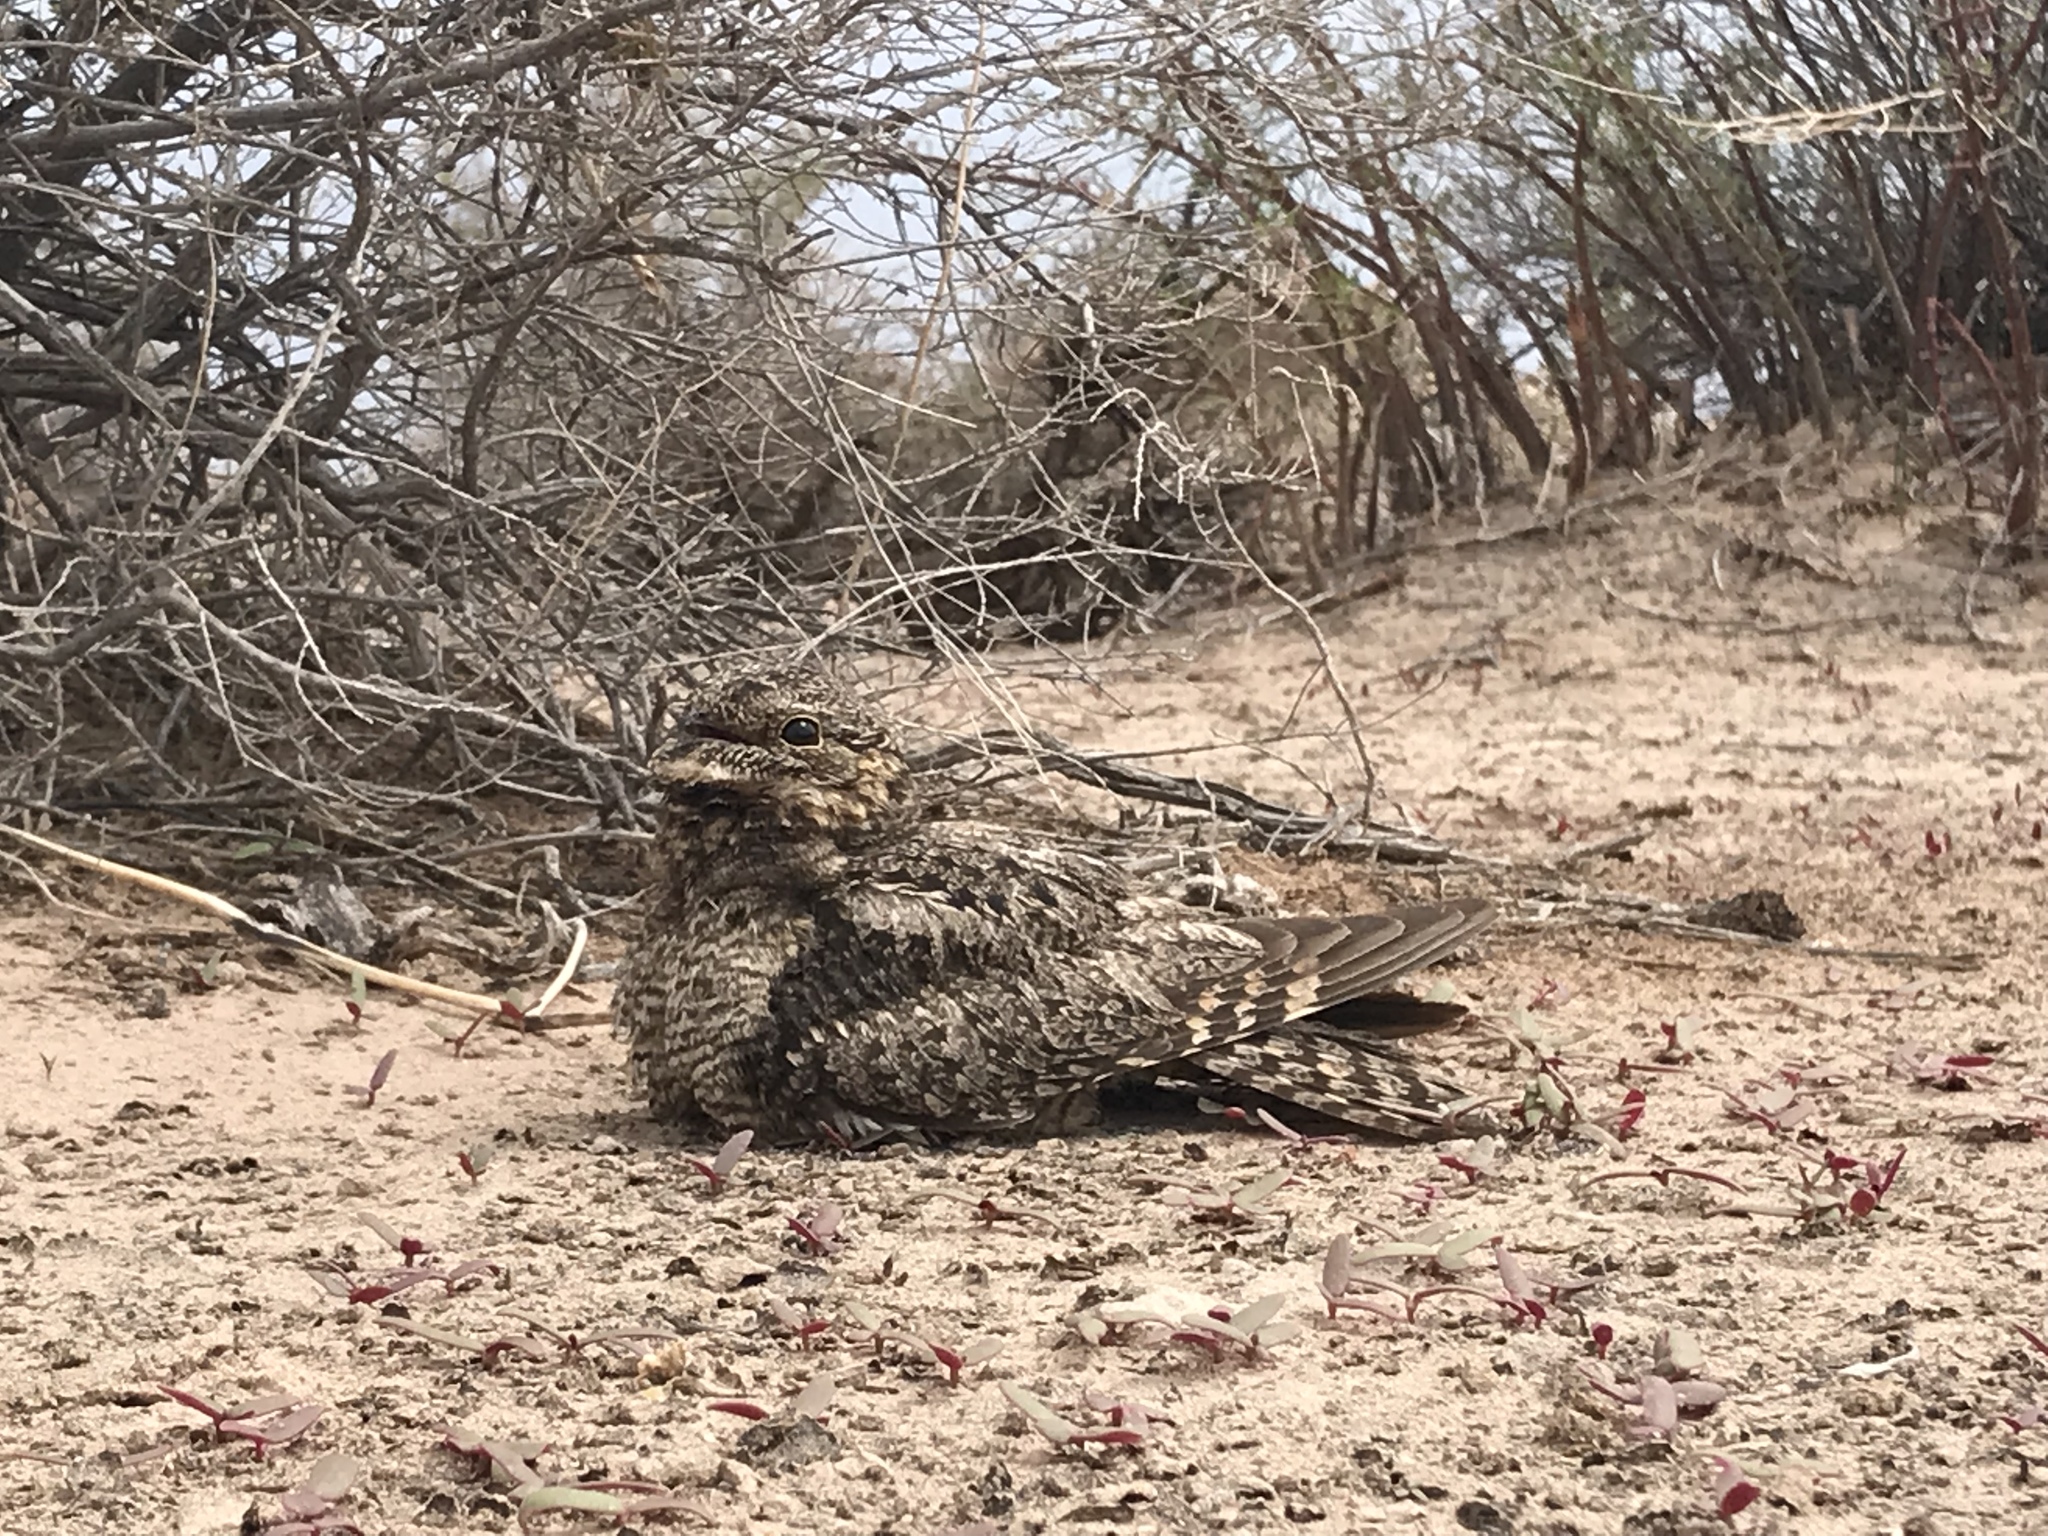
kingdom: Animalia
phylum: Chordata
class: Aves
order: Caprimulgiformes
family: Caprimulgidae
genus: Chordeiles
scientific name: Chordeiles acutipennis
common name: Lesser nighthawk
